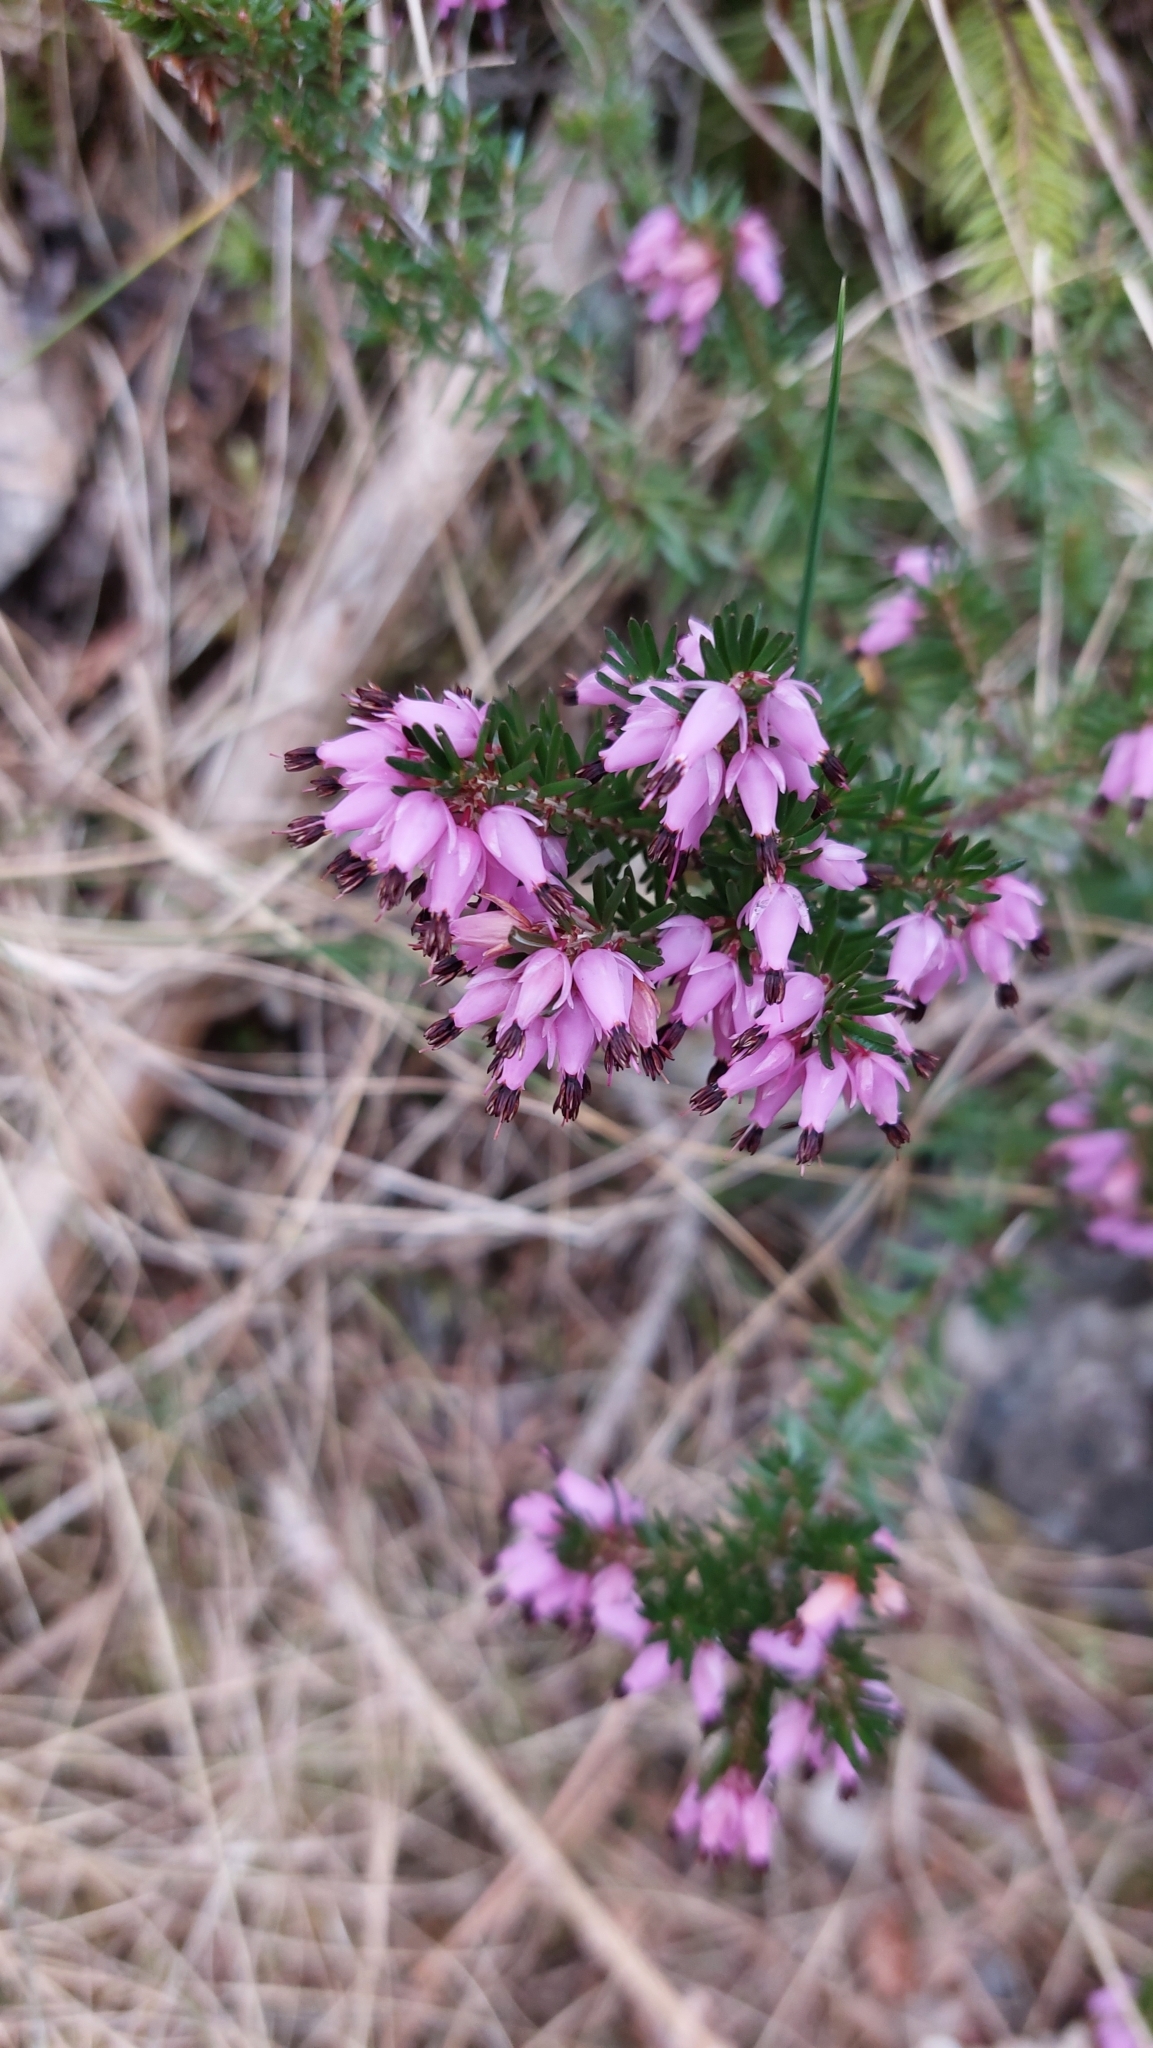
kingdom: Plantae
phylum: Tracheophyta
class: Magnoliopsida
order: Ericales
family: Ericaceae
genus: Erica
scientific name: Erica carnea
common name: Winter heath
